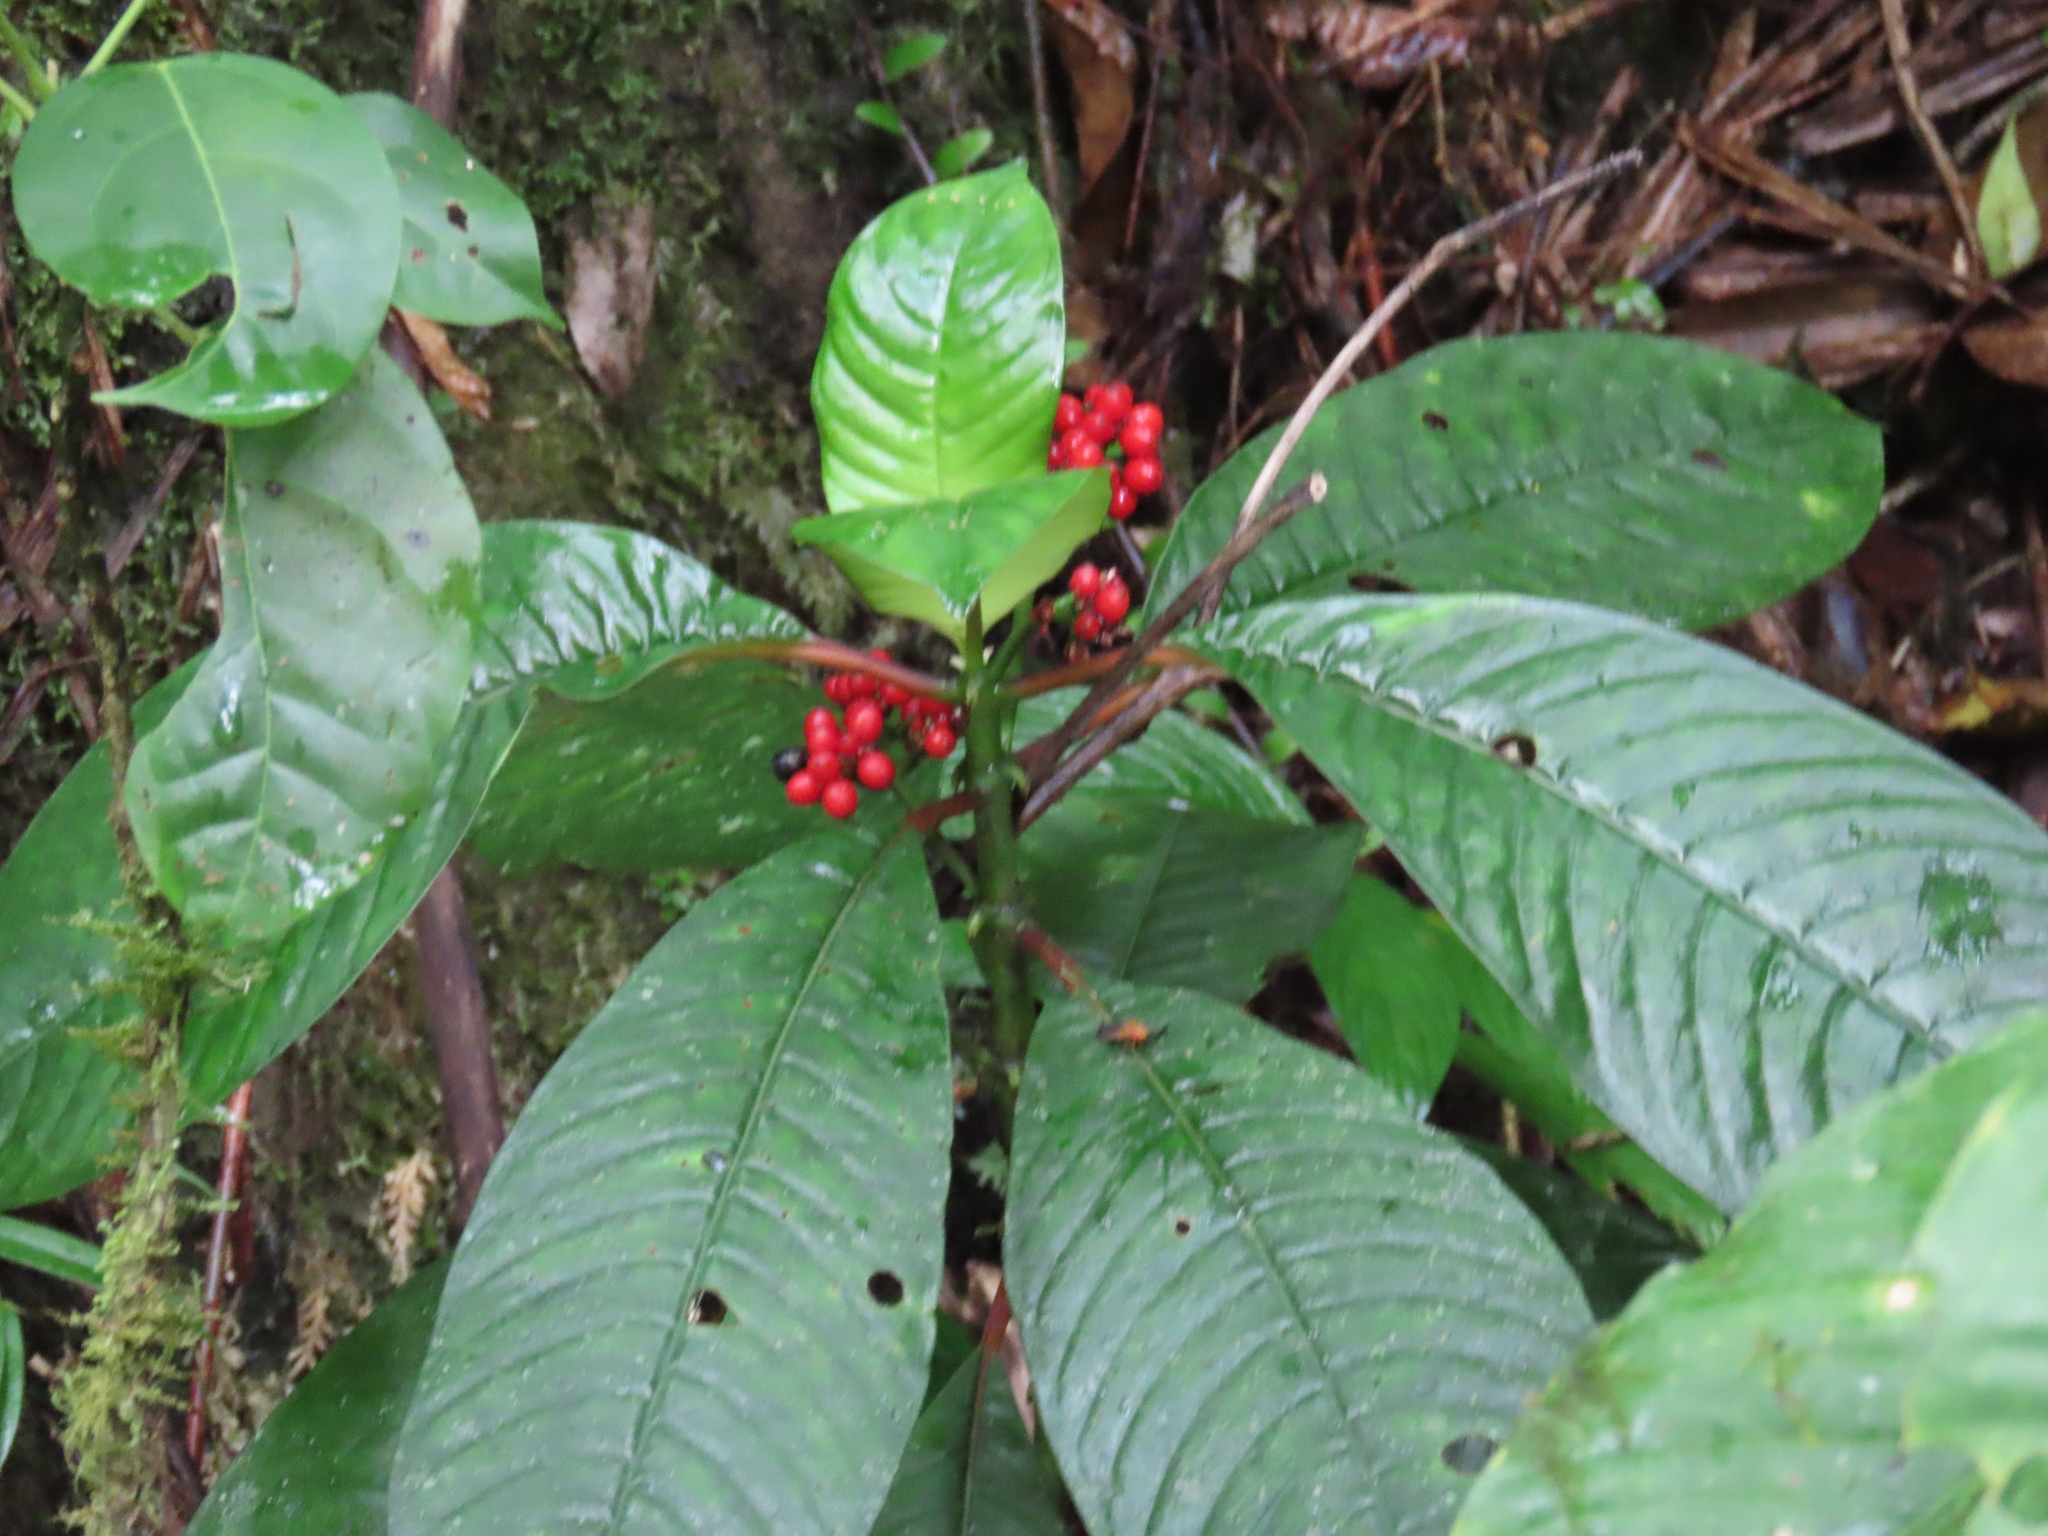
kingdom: Plantae
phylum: Tracheophyta
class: Magnoliopsida
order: Gentianales
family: Rubiaceae
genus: Notopleura
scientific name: Notopleura uliginosa
